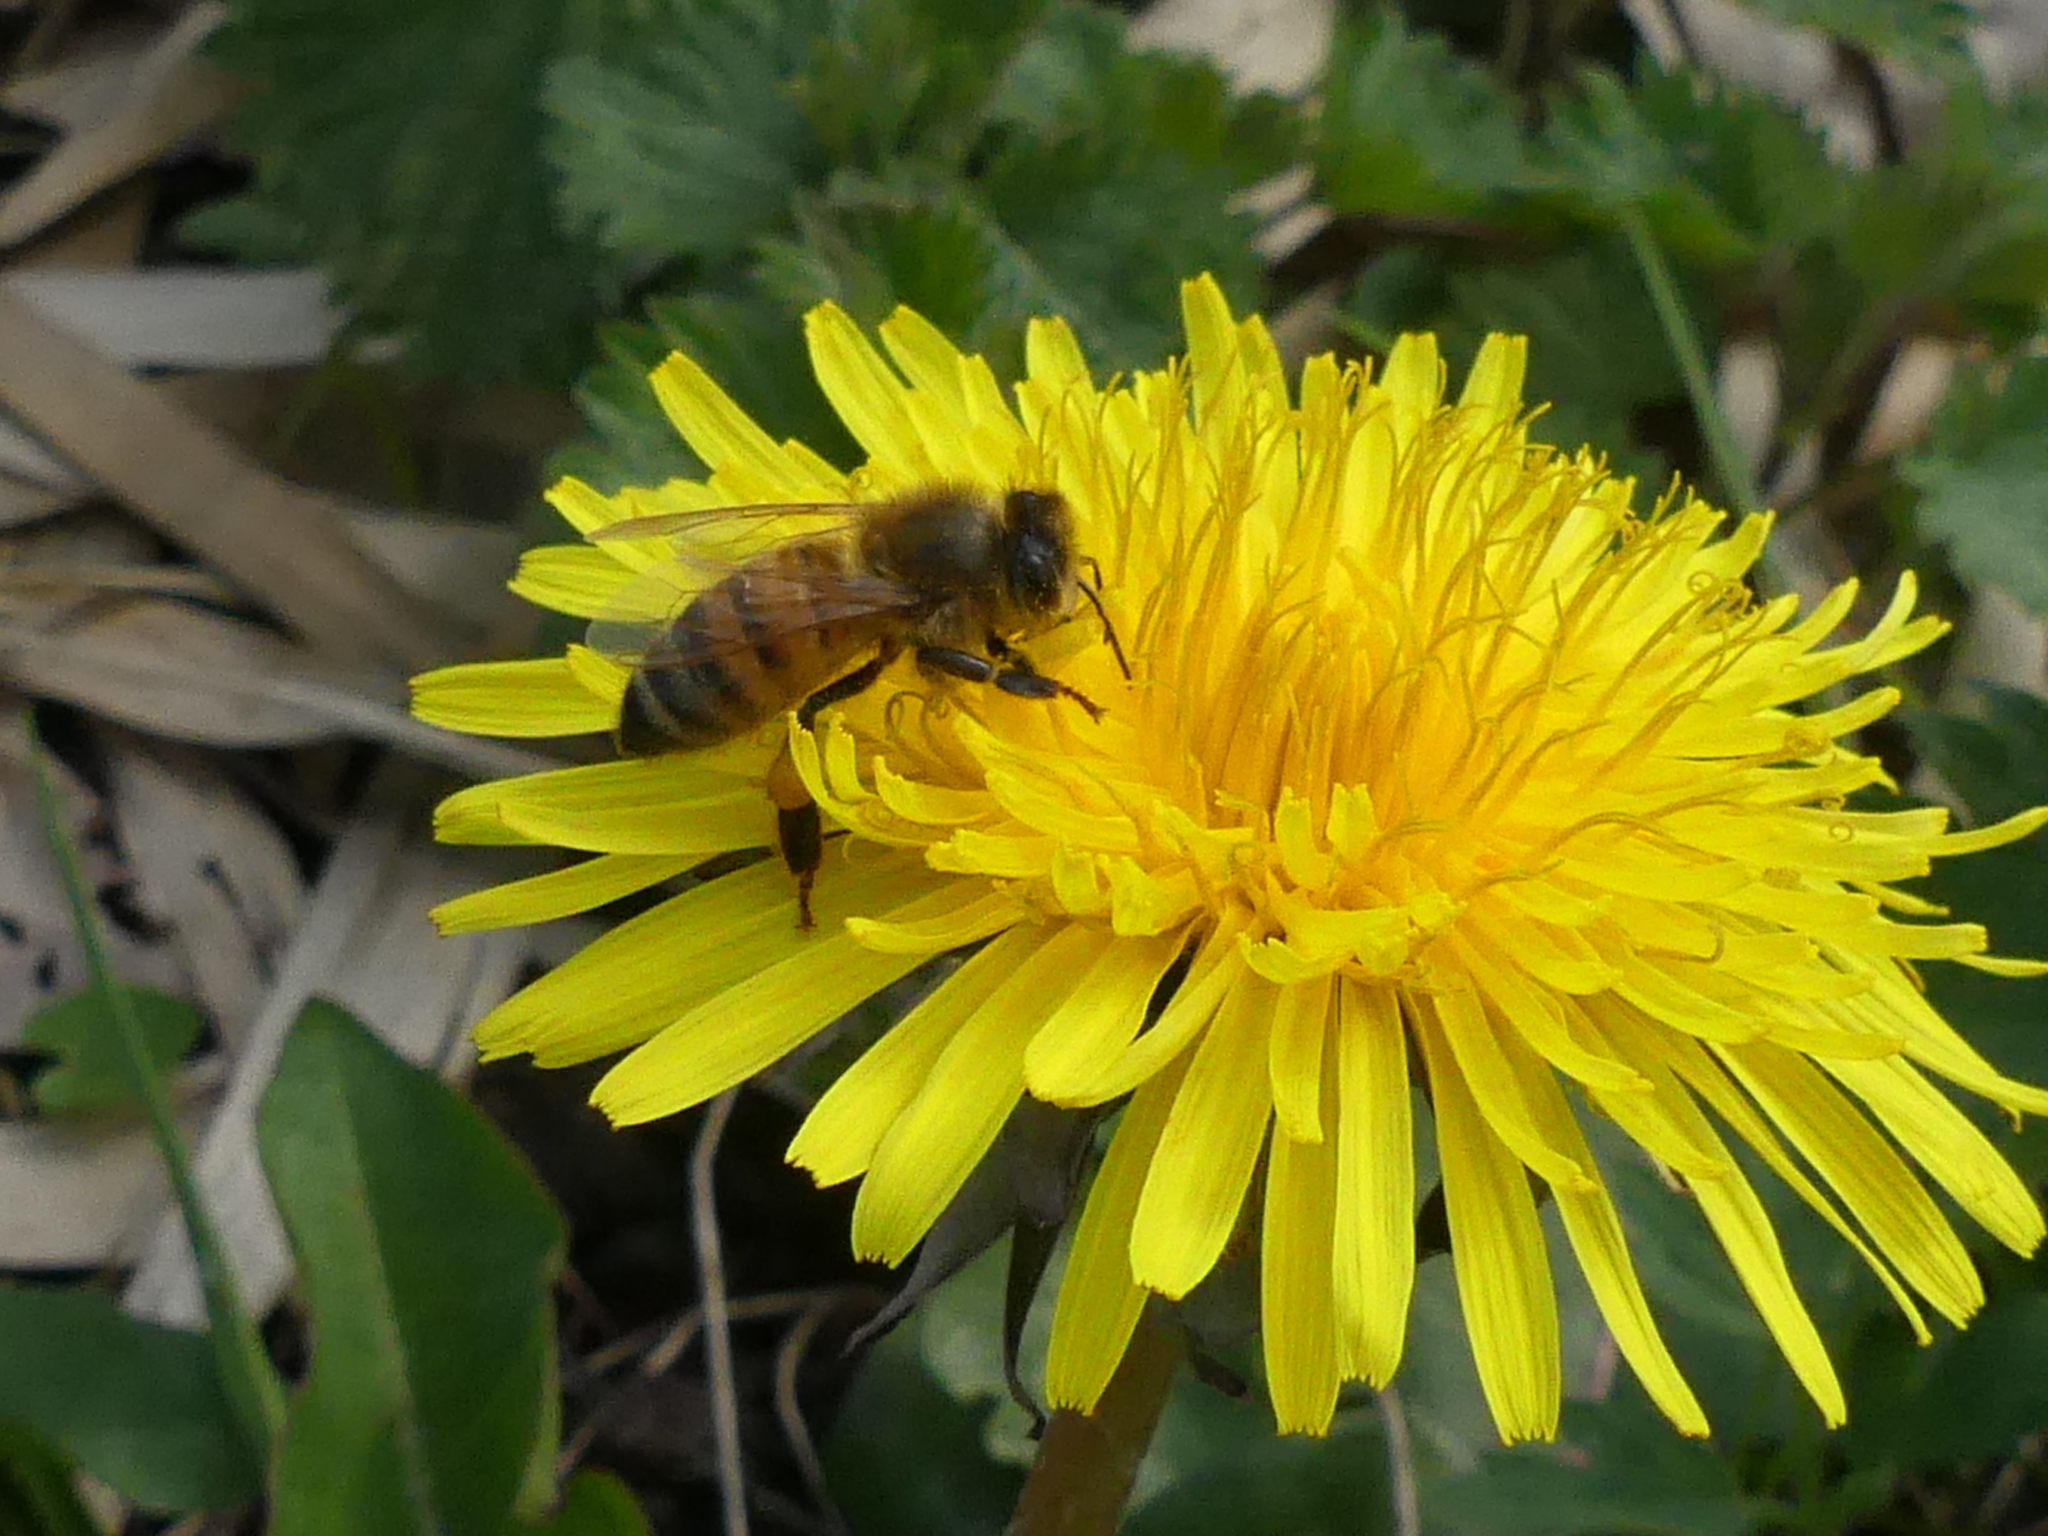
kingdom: Animalia
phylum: Arthropoda
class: Insecta
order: Hymenoptera
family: Apidae
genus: Apis
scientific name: Apis mellifera
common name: Honey bee
